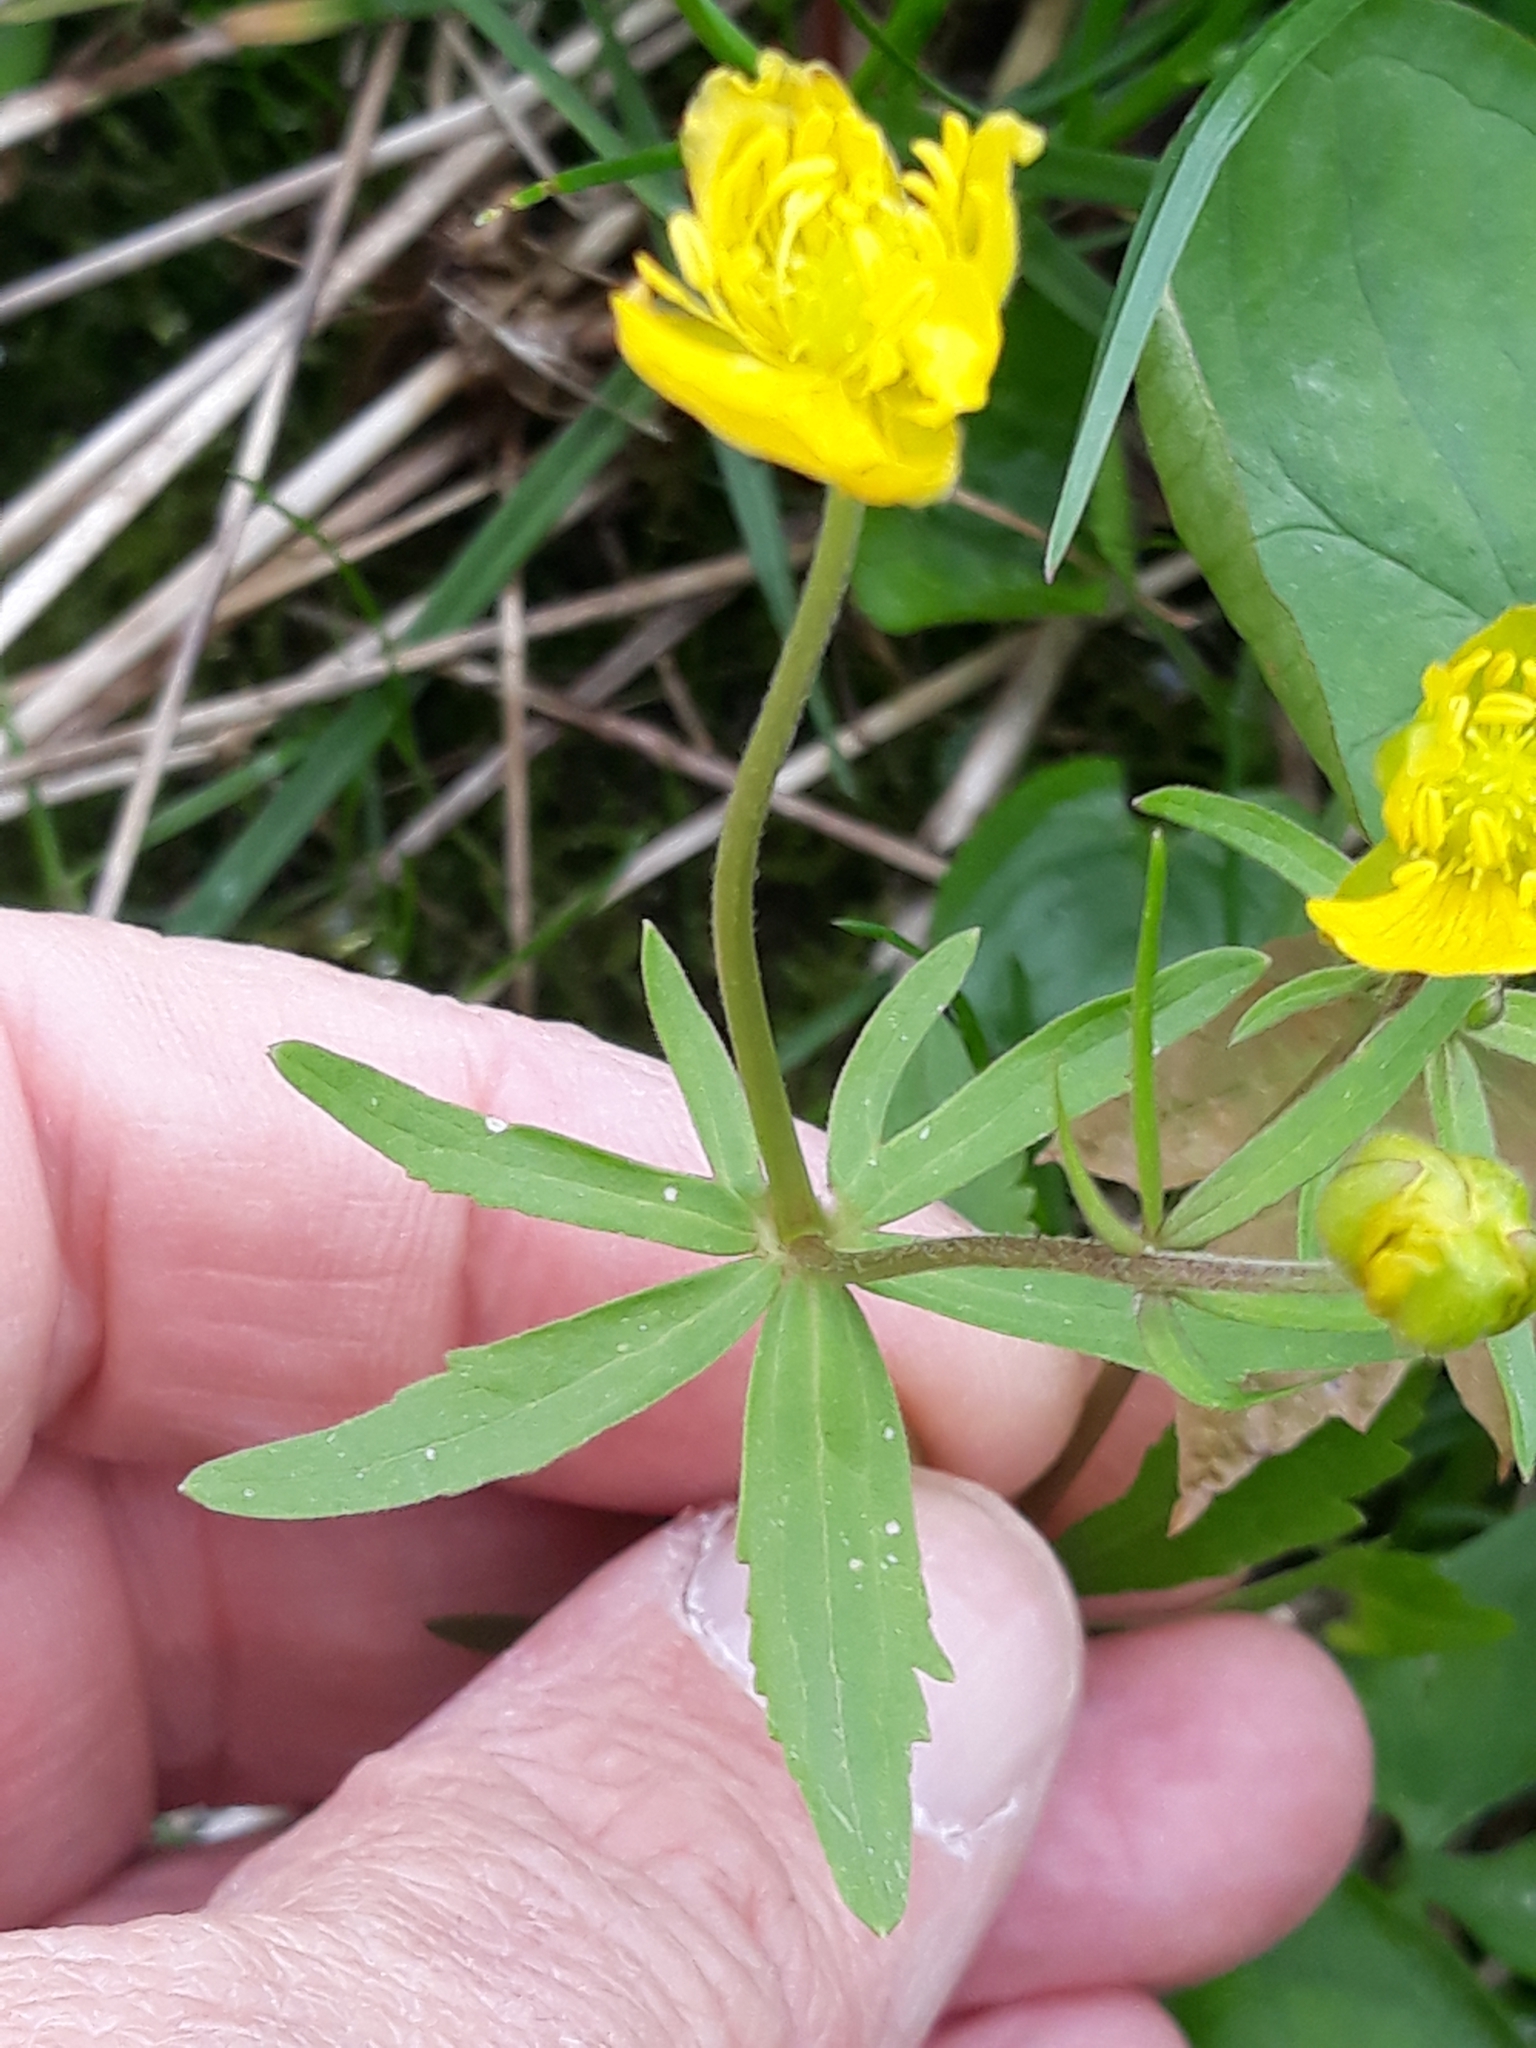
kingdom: Plantae
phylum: Tracheophyta
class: Magnoliopsida
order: Ranunculales
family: Ranunculaceae
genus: Ranunculus
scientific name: Ranunculus auricomus
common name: Goldilocks buttercup
